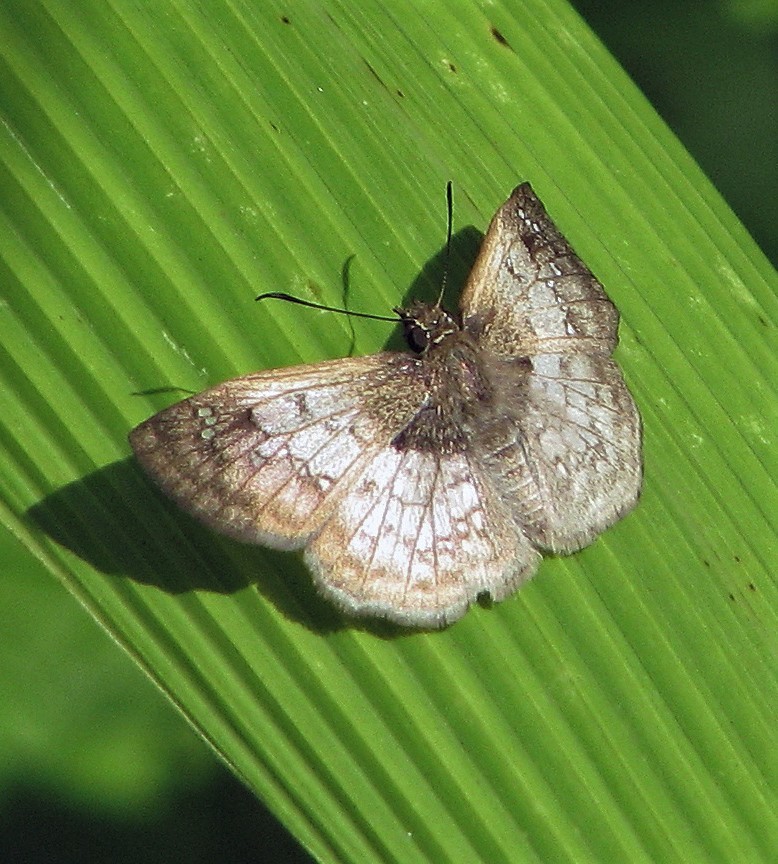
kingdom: Animalia
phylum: Arthropoda
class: Insecta
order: Lepidoptera
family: Hesperiidae
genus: Canesia
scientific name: Canesia
